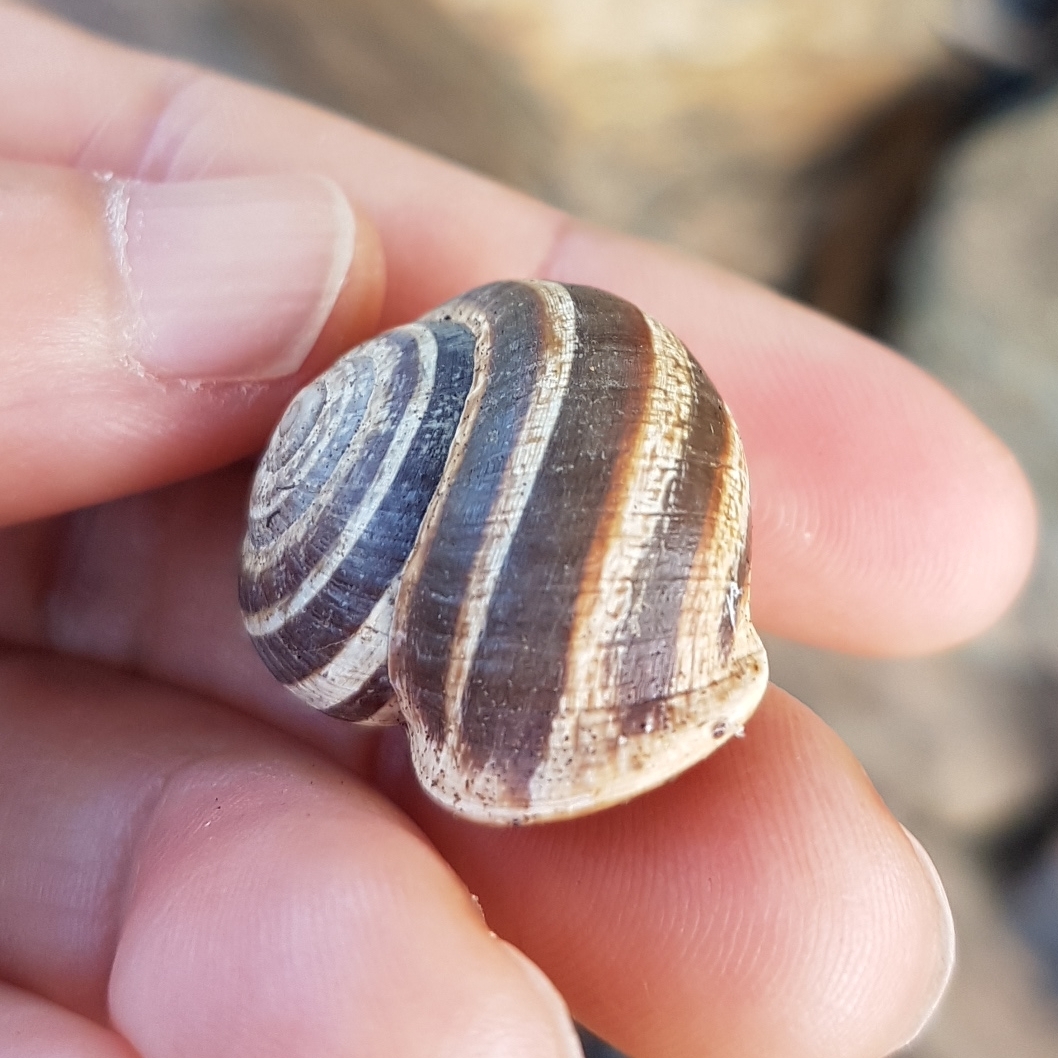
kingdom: Animalia
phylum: Mollusca
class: Gastropoda
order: Stylommatophora
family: Helicidae
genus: Otala
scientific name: Otala lactea
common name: Milk snail
